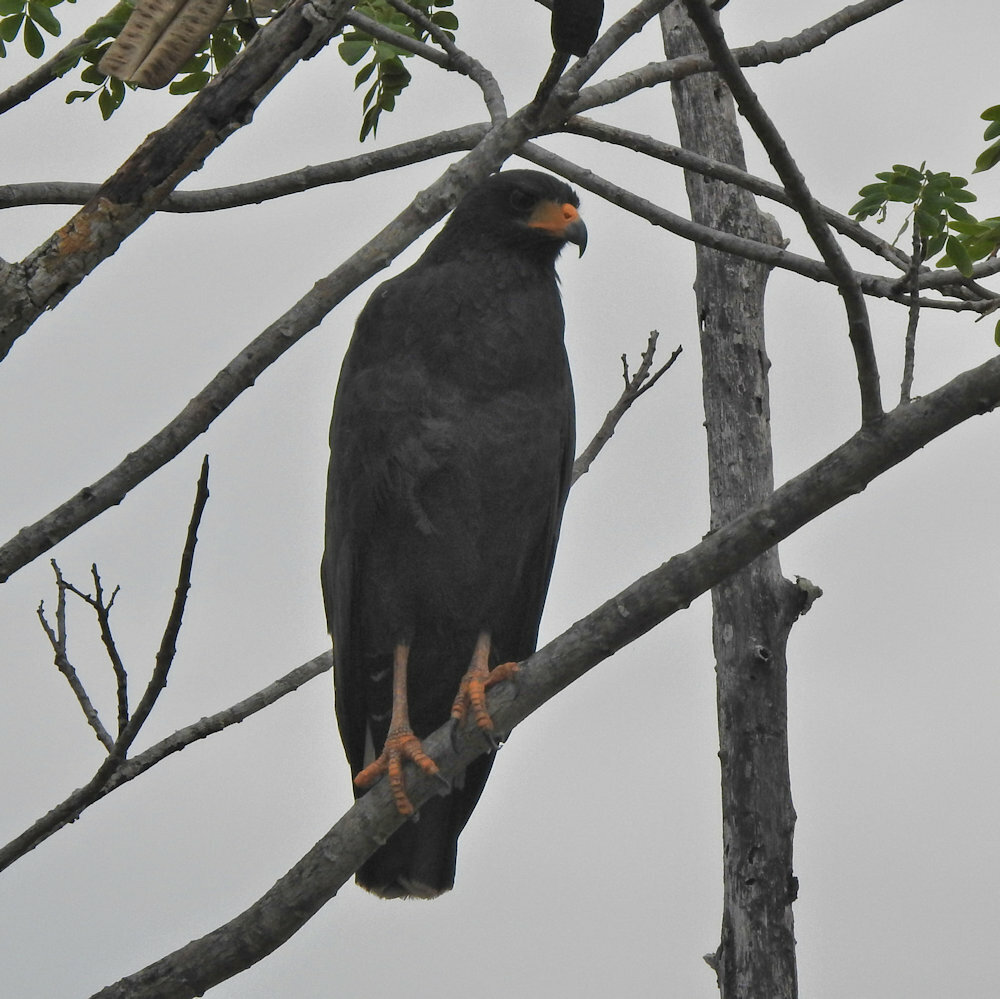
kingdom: Animalia
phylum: Chordata
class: Aves
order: Accipitriformes
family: Accipitridae
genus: Buteogallus
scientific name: Buteogallus anthracinus
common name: Common black hawk
